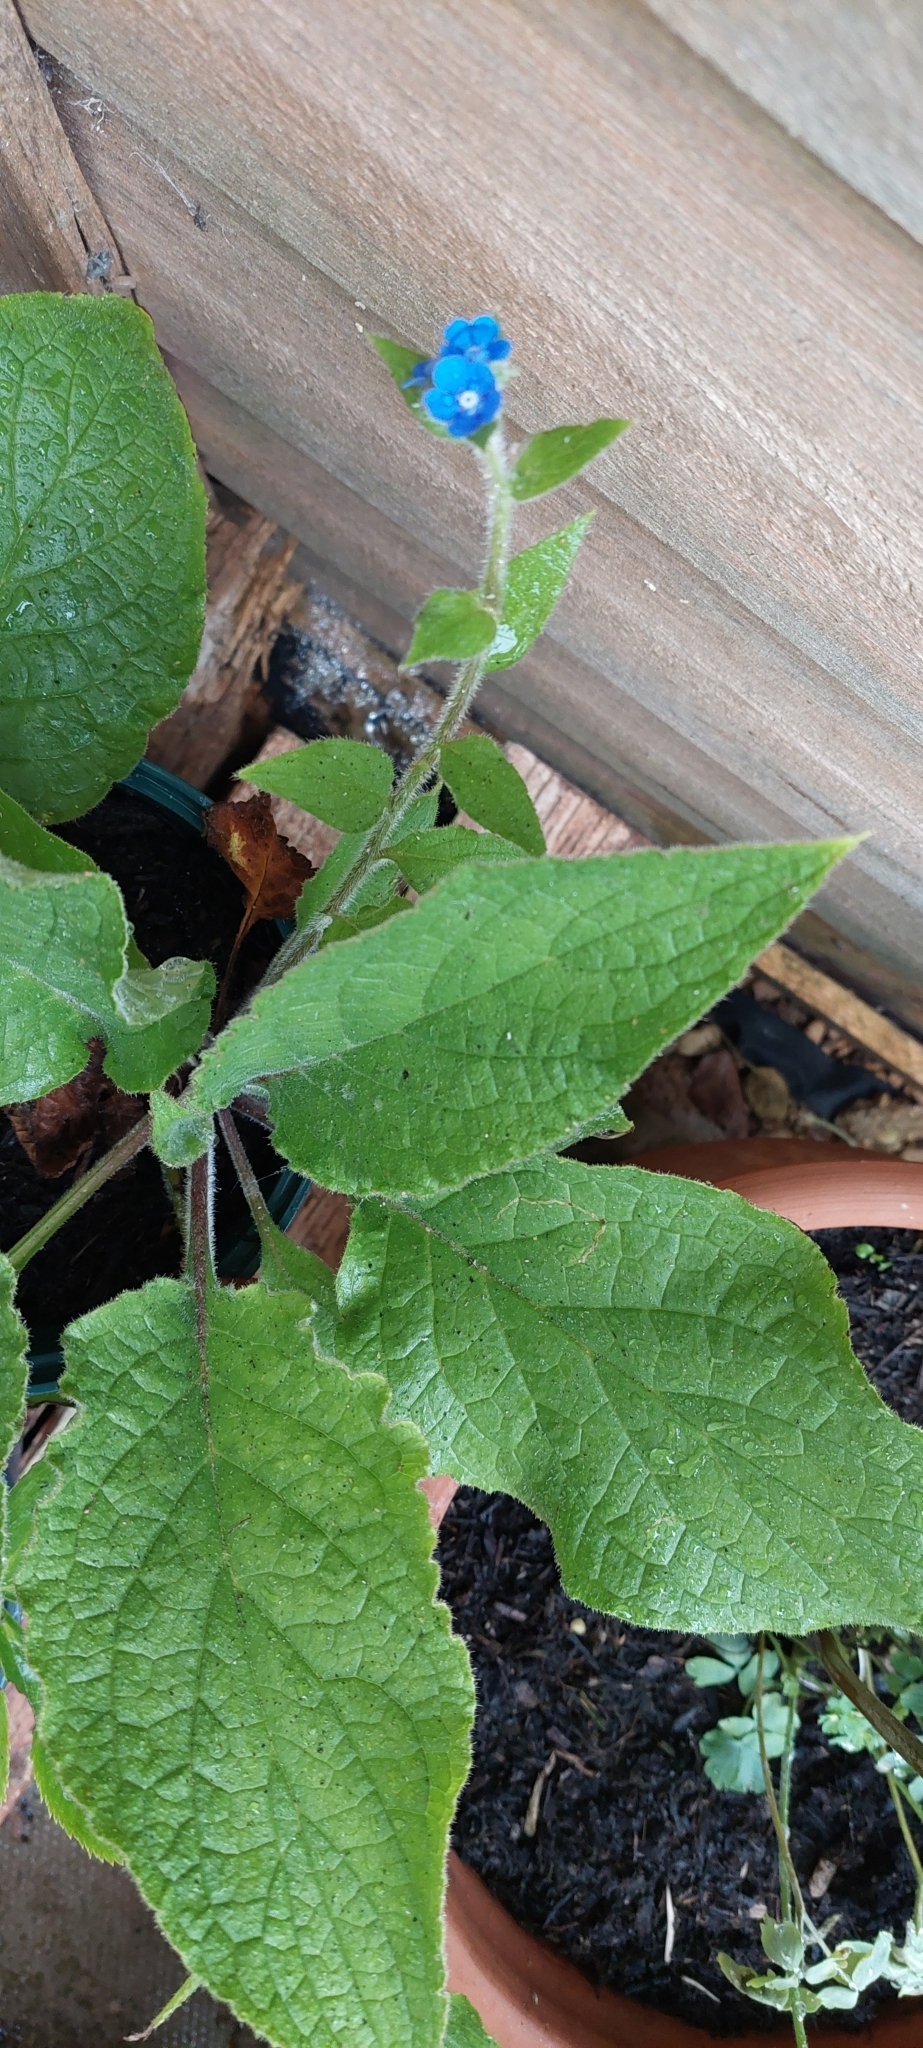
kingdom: Plantae
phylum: Tracheophyta
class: Magnoliopsida
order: Boraginales
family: Boraginaceae
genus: Pentaglottis
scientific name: Pentaglottis sempervirens
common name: Green alkanet
